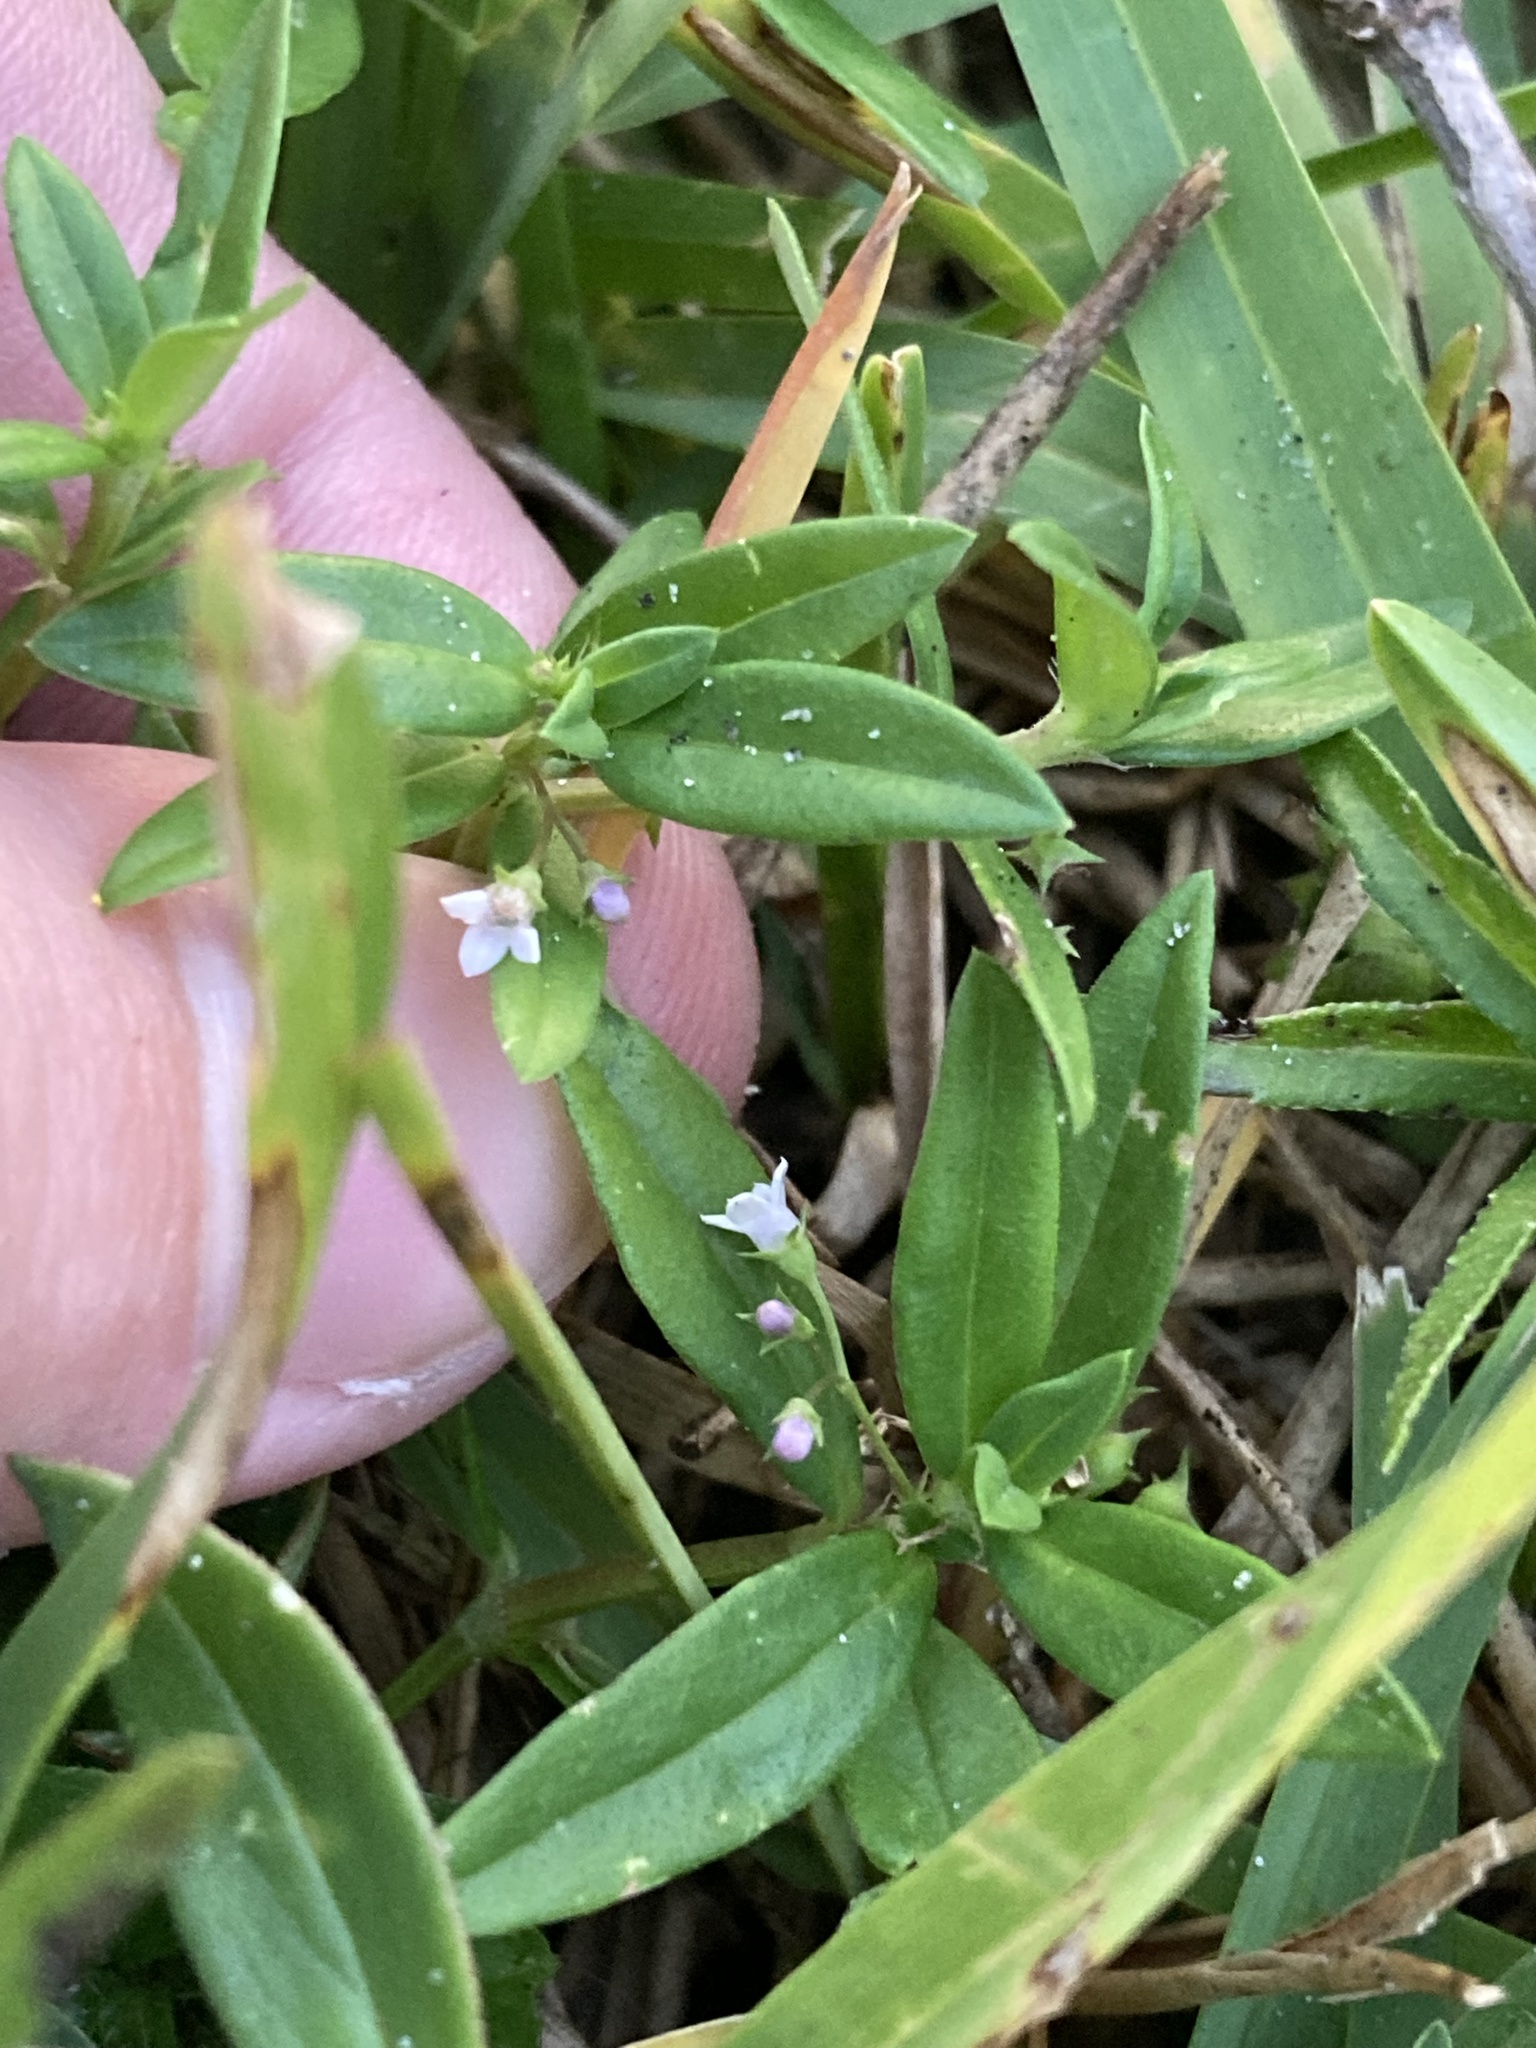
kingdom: Plantae
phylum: Tracheophyta
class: Magnoliopsida
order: Gentianales
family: Rubiaceae
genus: Oldenlandia
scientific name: Oldenlandia corymbosa
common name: Flat-top mille graines
